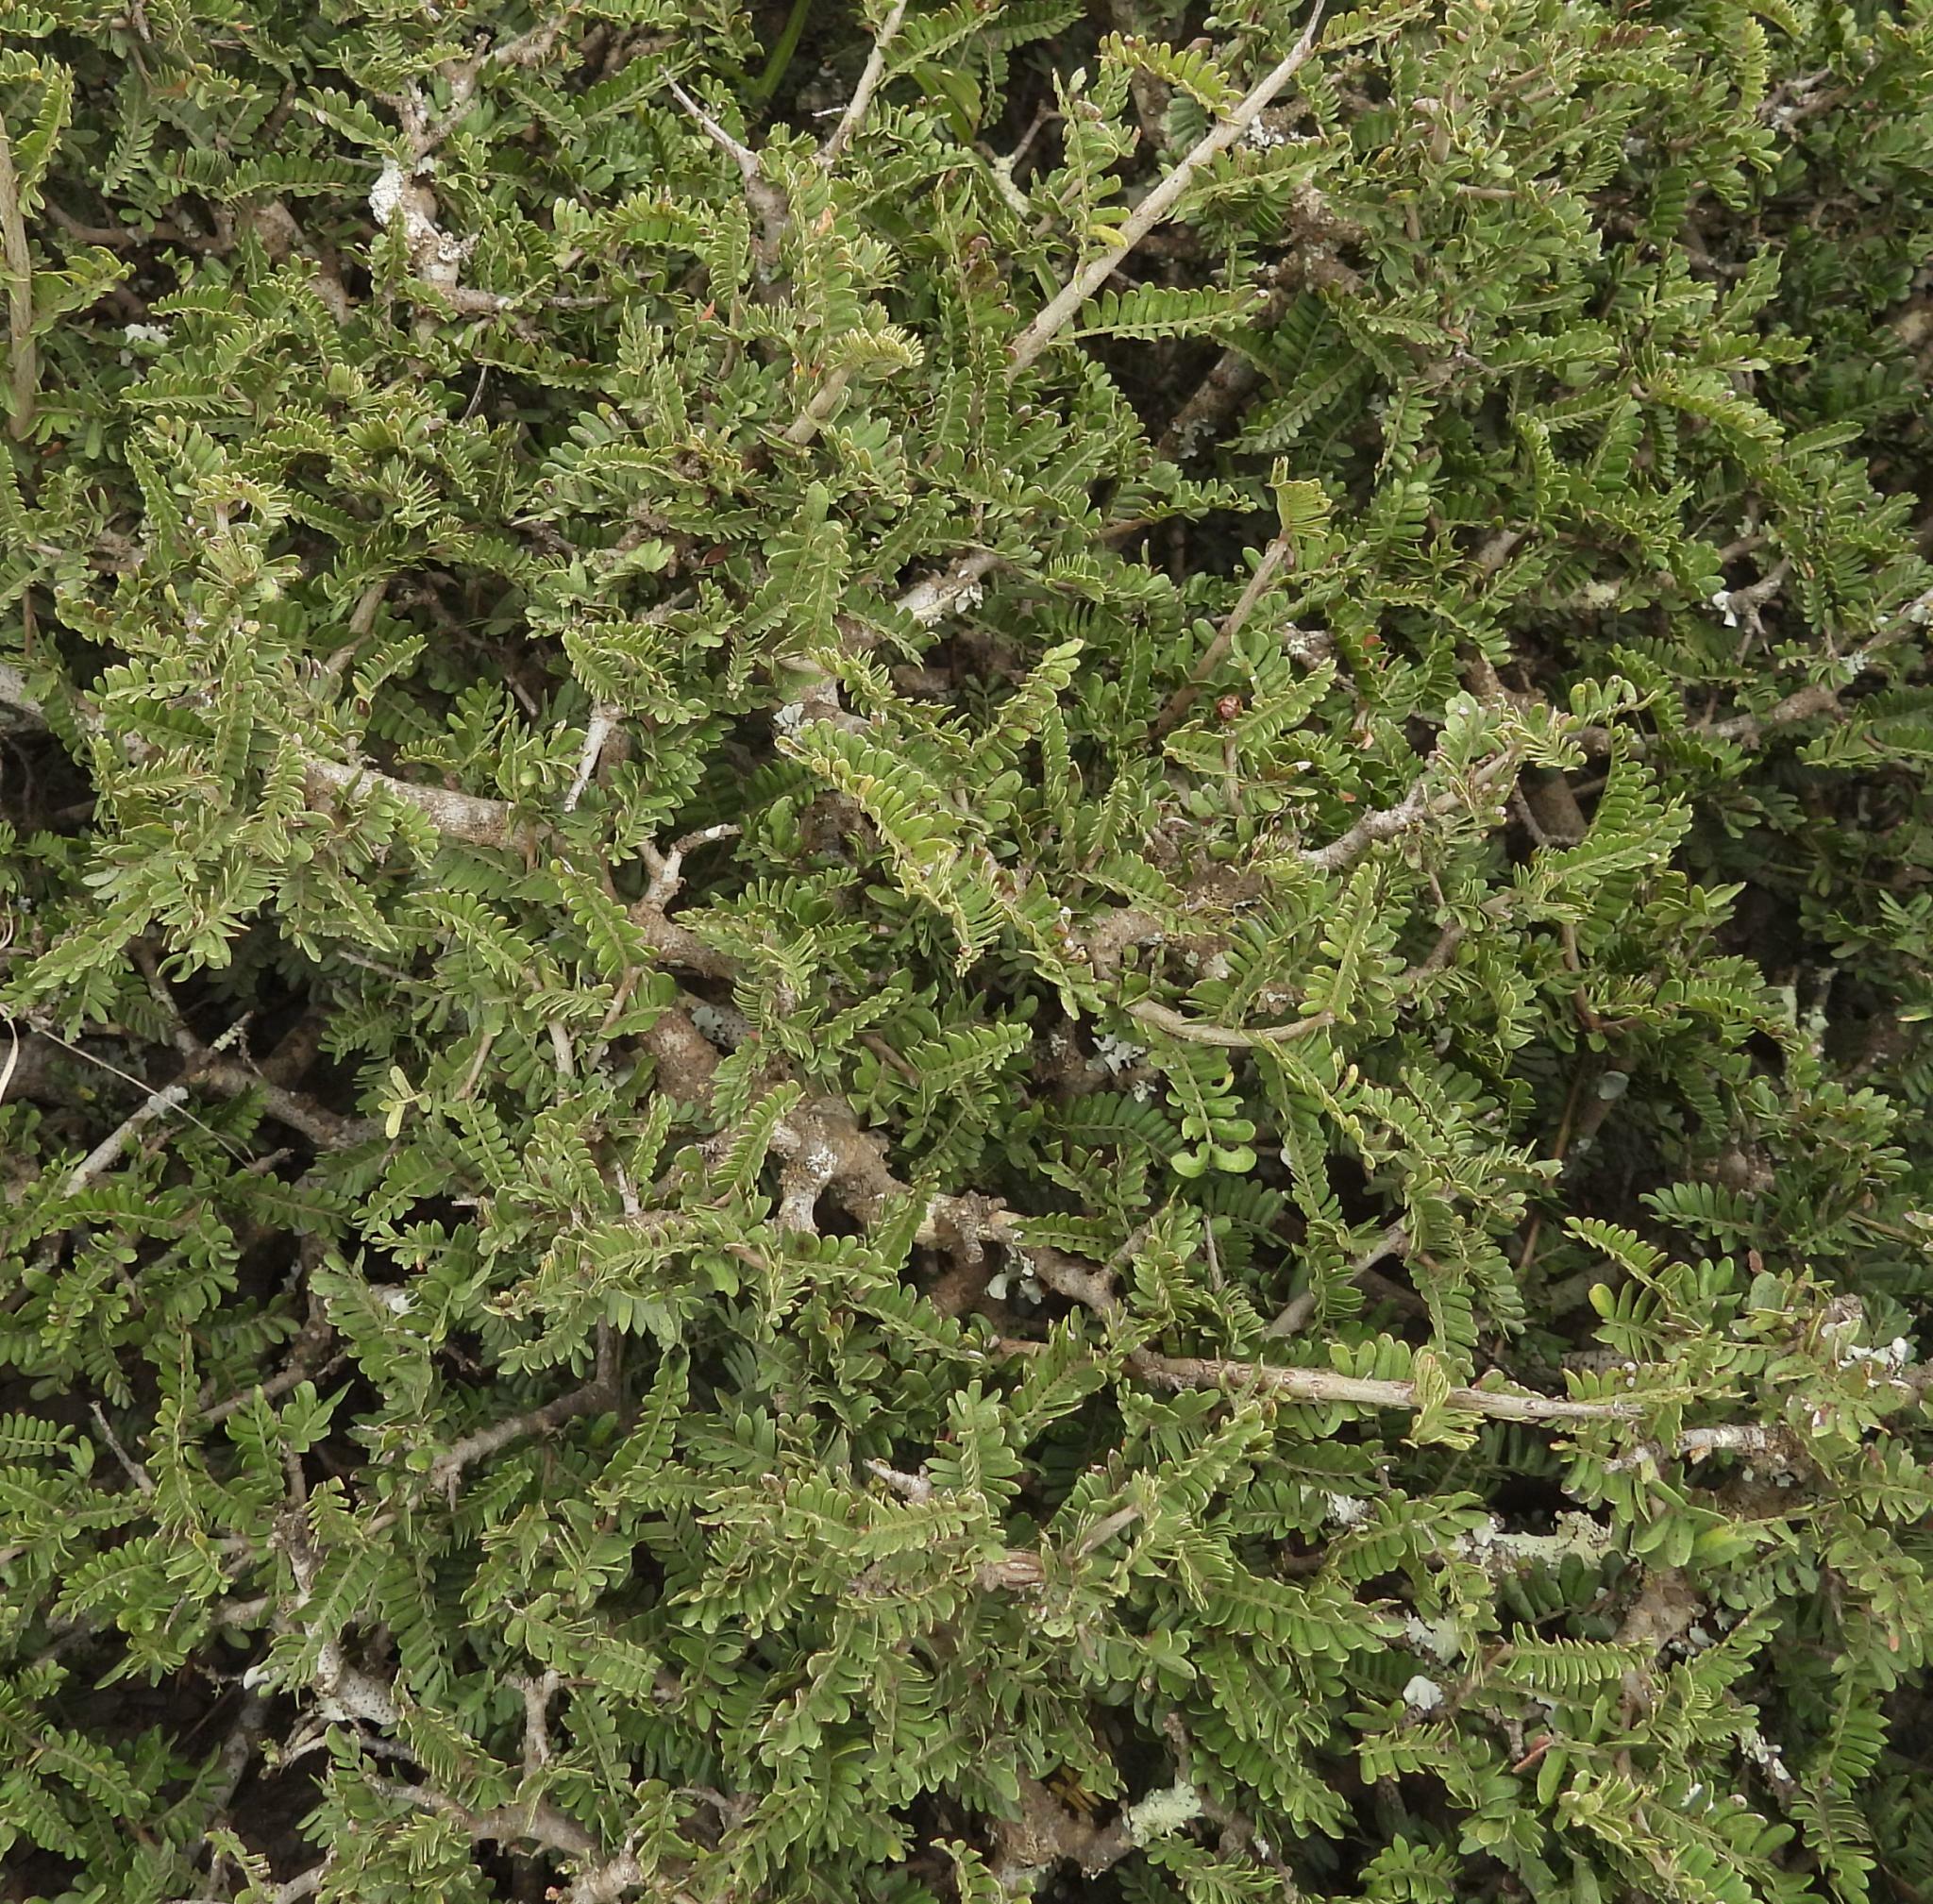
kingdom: Plantae
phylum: Tracheophyta
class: Magnoliopsida
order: Fabales
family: Fabaceae
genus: Schotia
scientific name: Schotia afra
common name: Hottentot's bean
